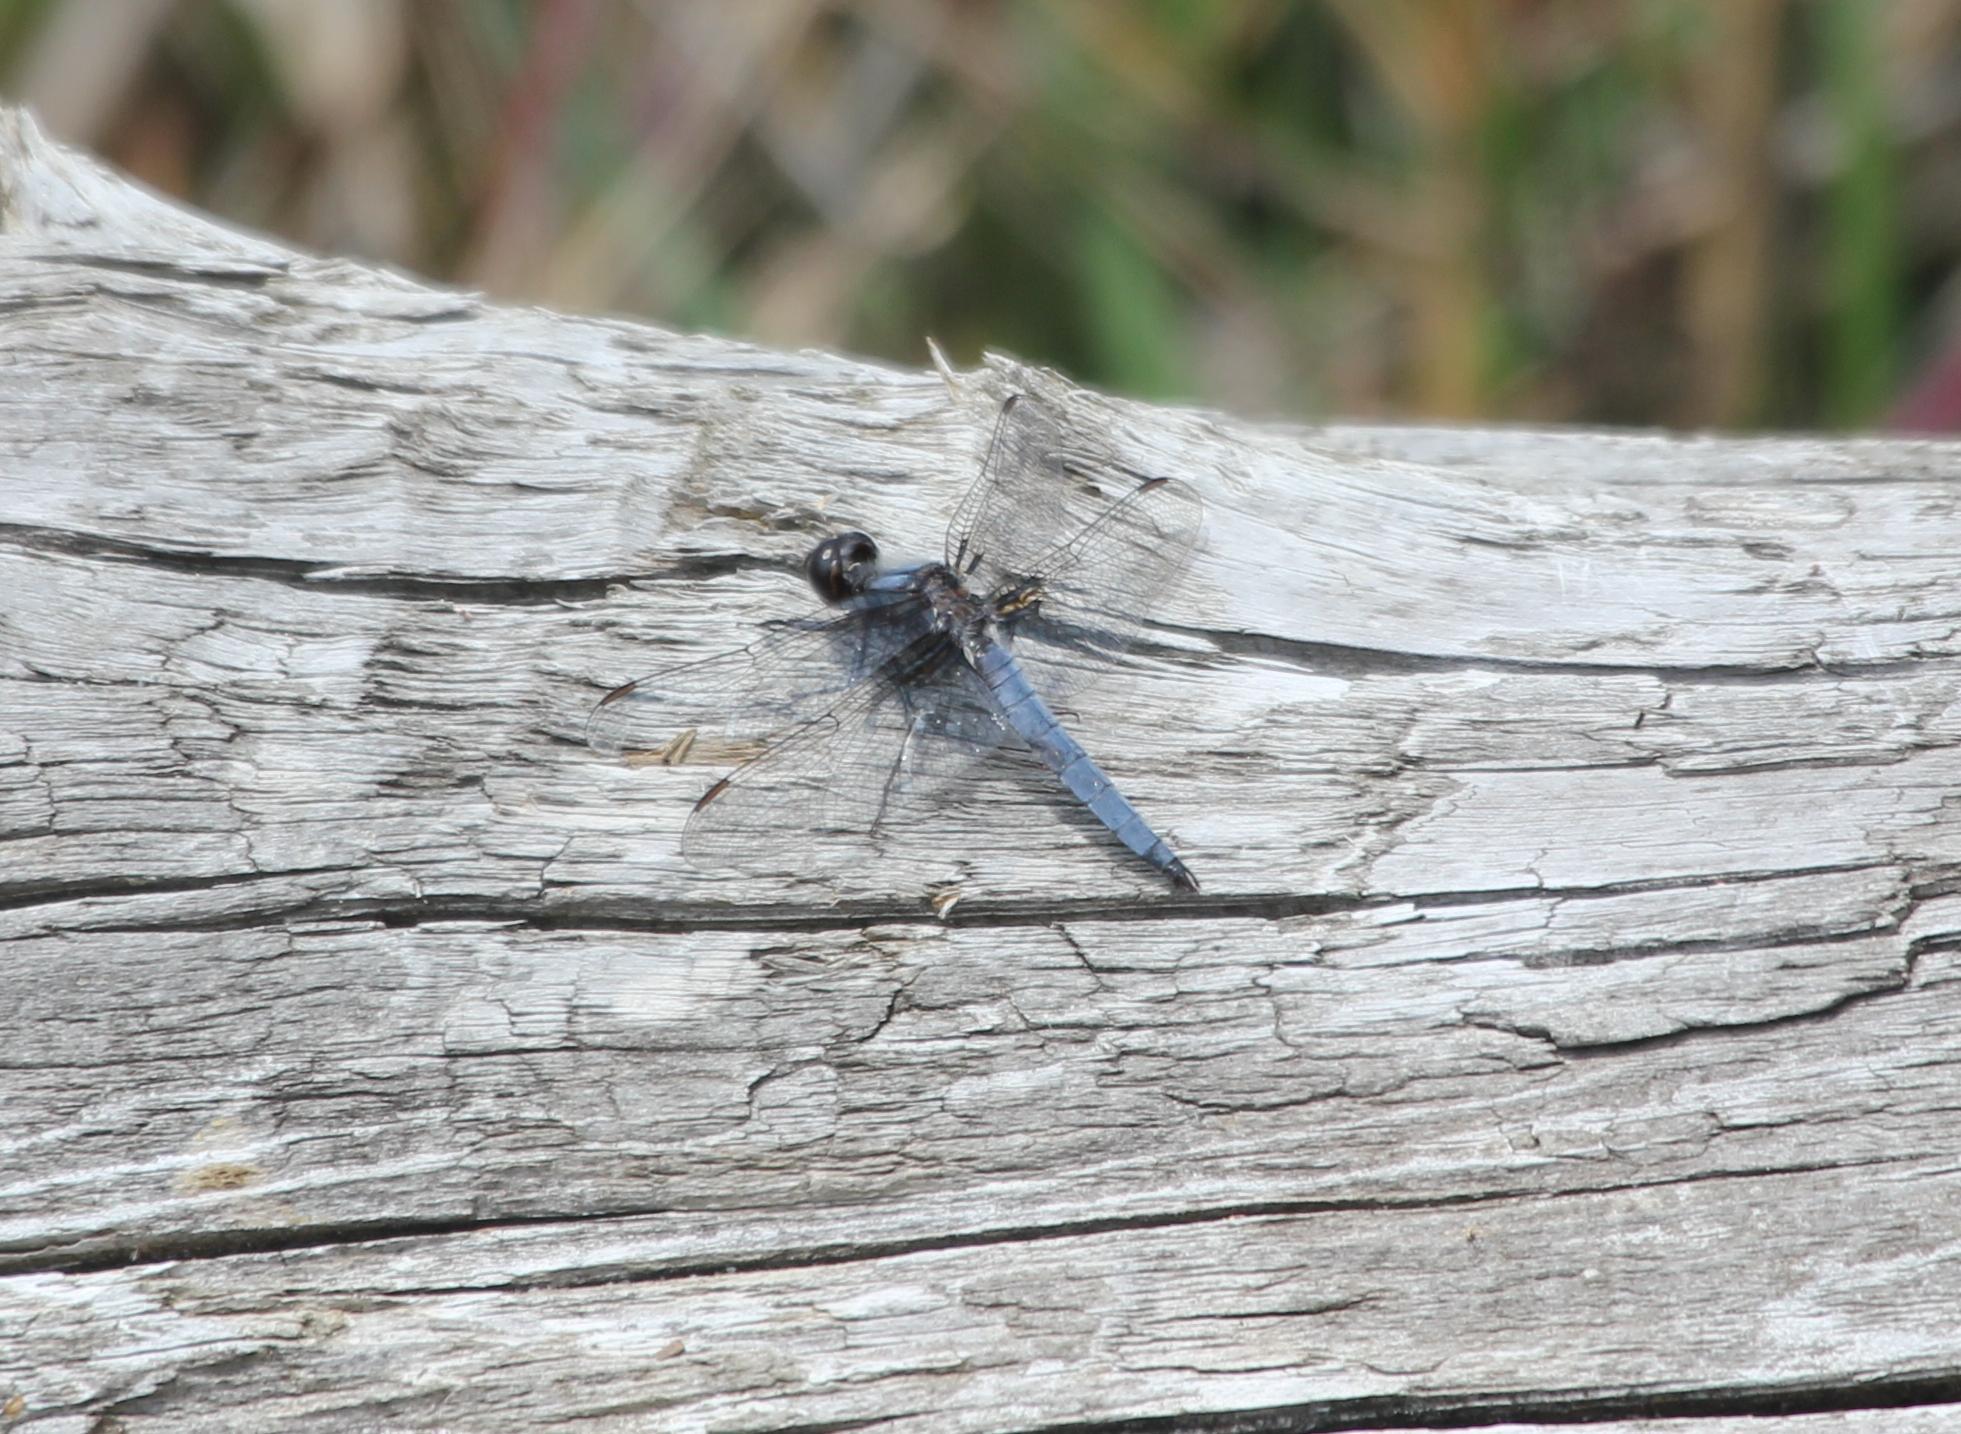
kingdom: Animalia
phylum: Arthropoda
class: Insecta
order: Odonata
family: Libellulidae
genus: Ladona
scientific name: Ladona deplanata
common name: Blue corporal
